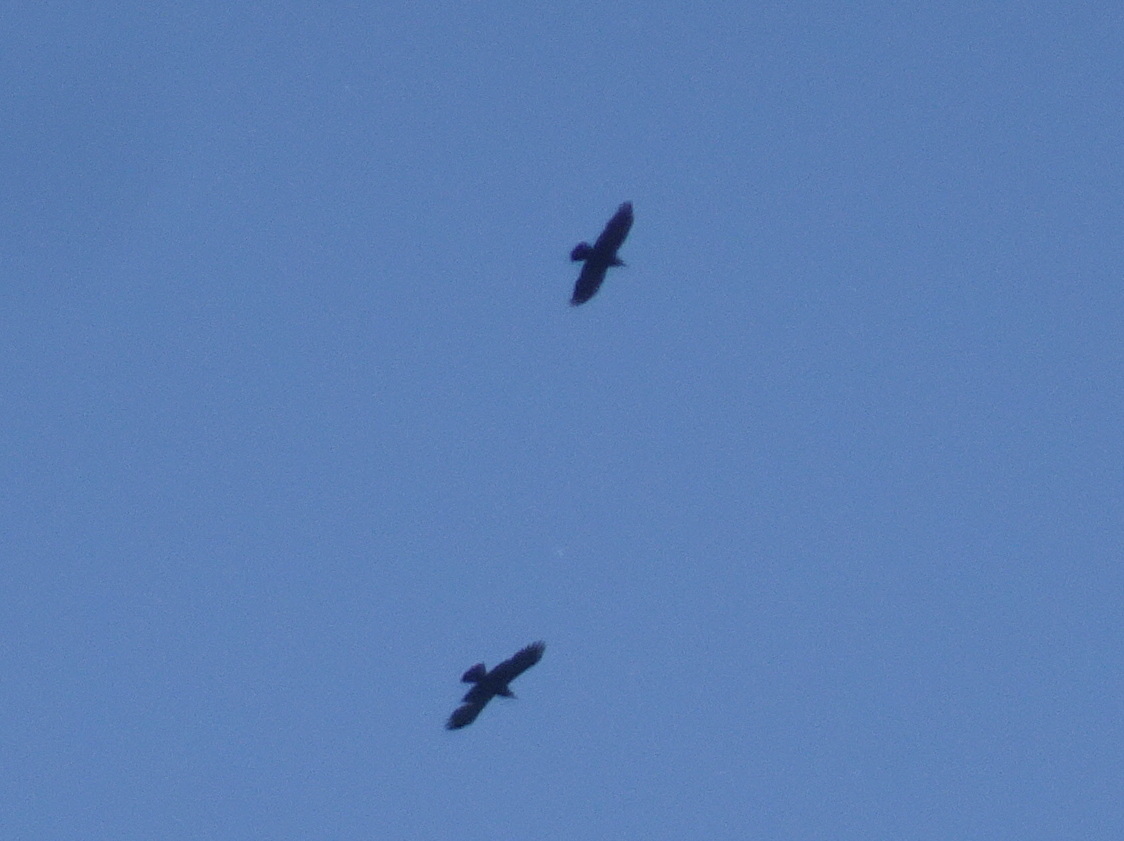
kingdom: Animalia
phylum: Chordata
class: Aves
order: Passeriformes
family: Corvidae
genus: Corvus
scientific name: Corvus corax
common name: Common raven
